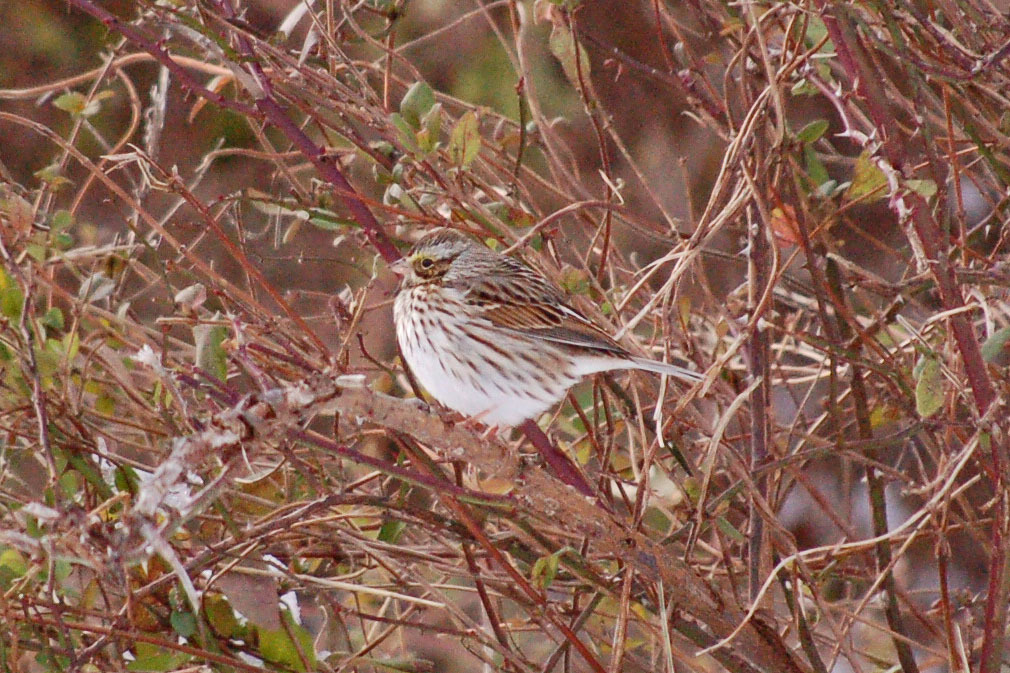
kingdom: Animalia
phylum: Chordata
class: Aves
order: Passeriformes
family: Passerellidae
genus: Passerculus
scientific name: Passerculus sandwichensis
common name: Savannah sparrow
